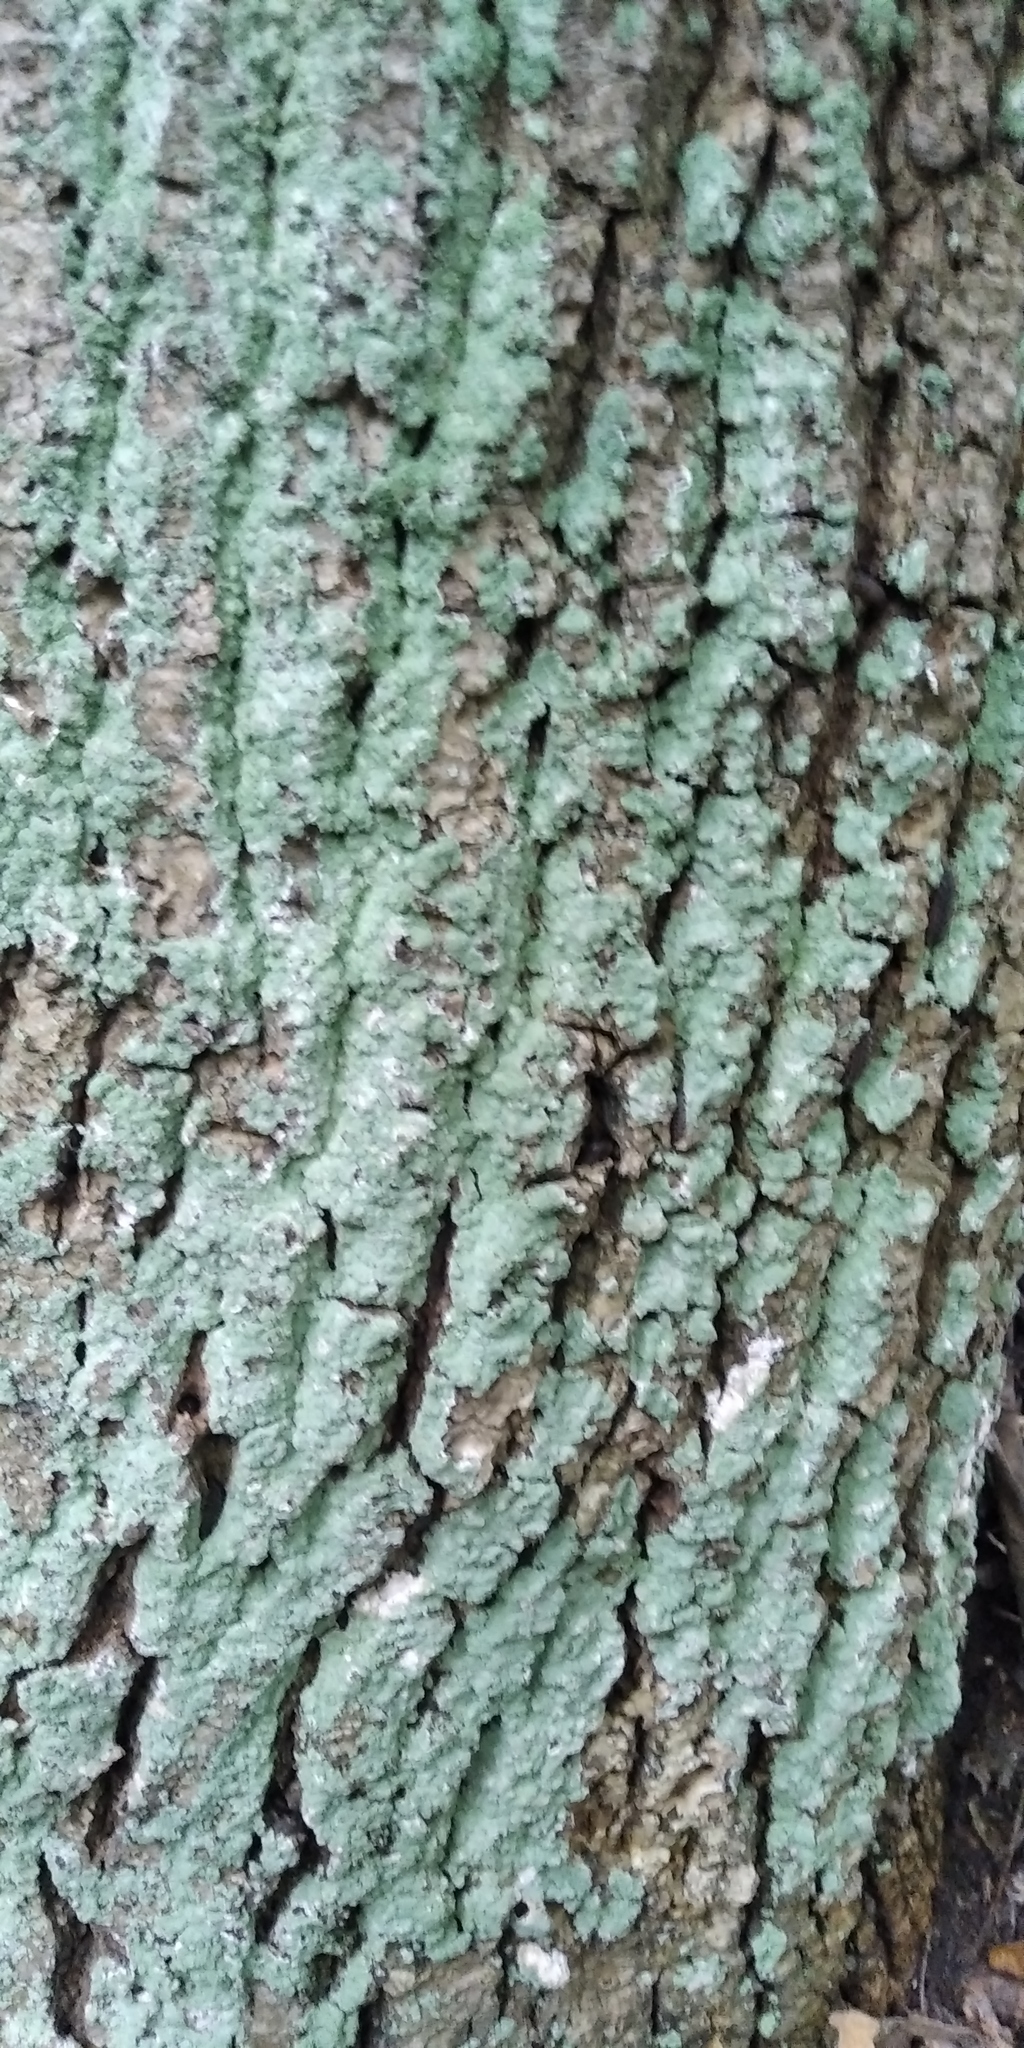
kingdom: Fungi
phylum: Ascomycota
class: Lecanoromycetes
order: Lecanorales
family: Stereocaulaceae
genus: Lepraria
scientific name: Lepraria
